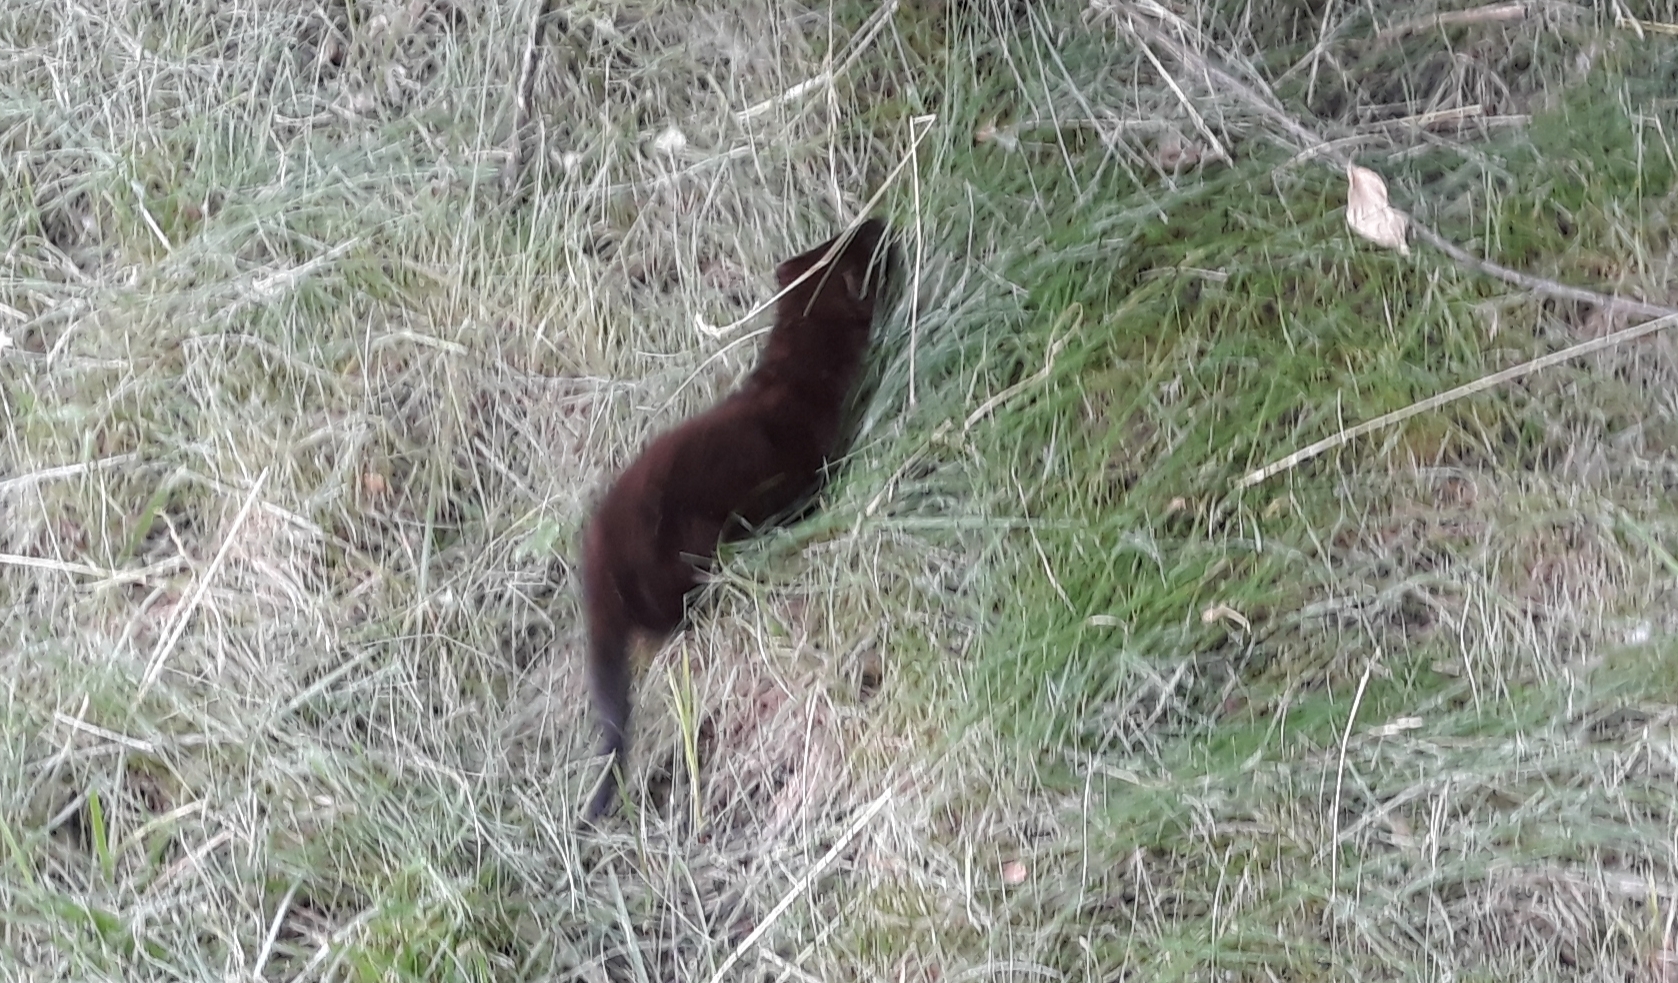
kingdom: Animalia
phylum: Chordata
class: Mammalia
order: Carnivora
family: Mustelidae
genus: Mustela
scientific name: Mustela
